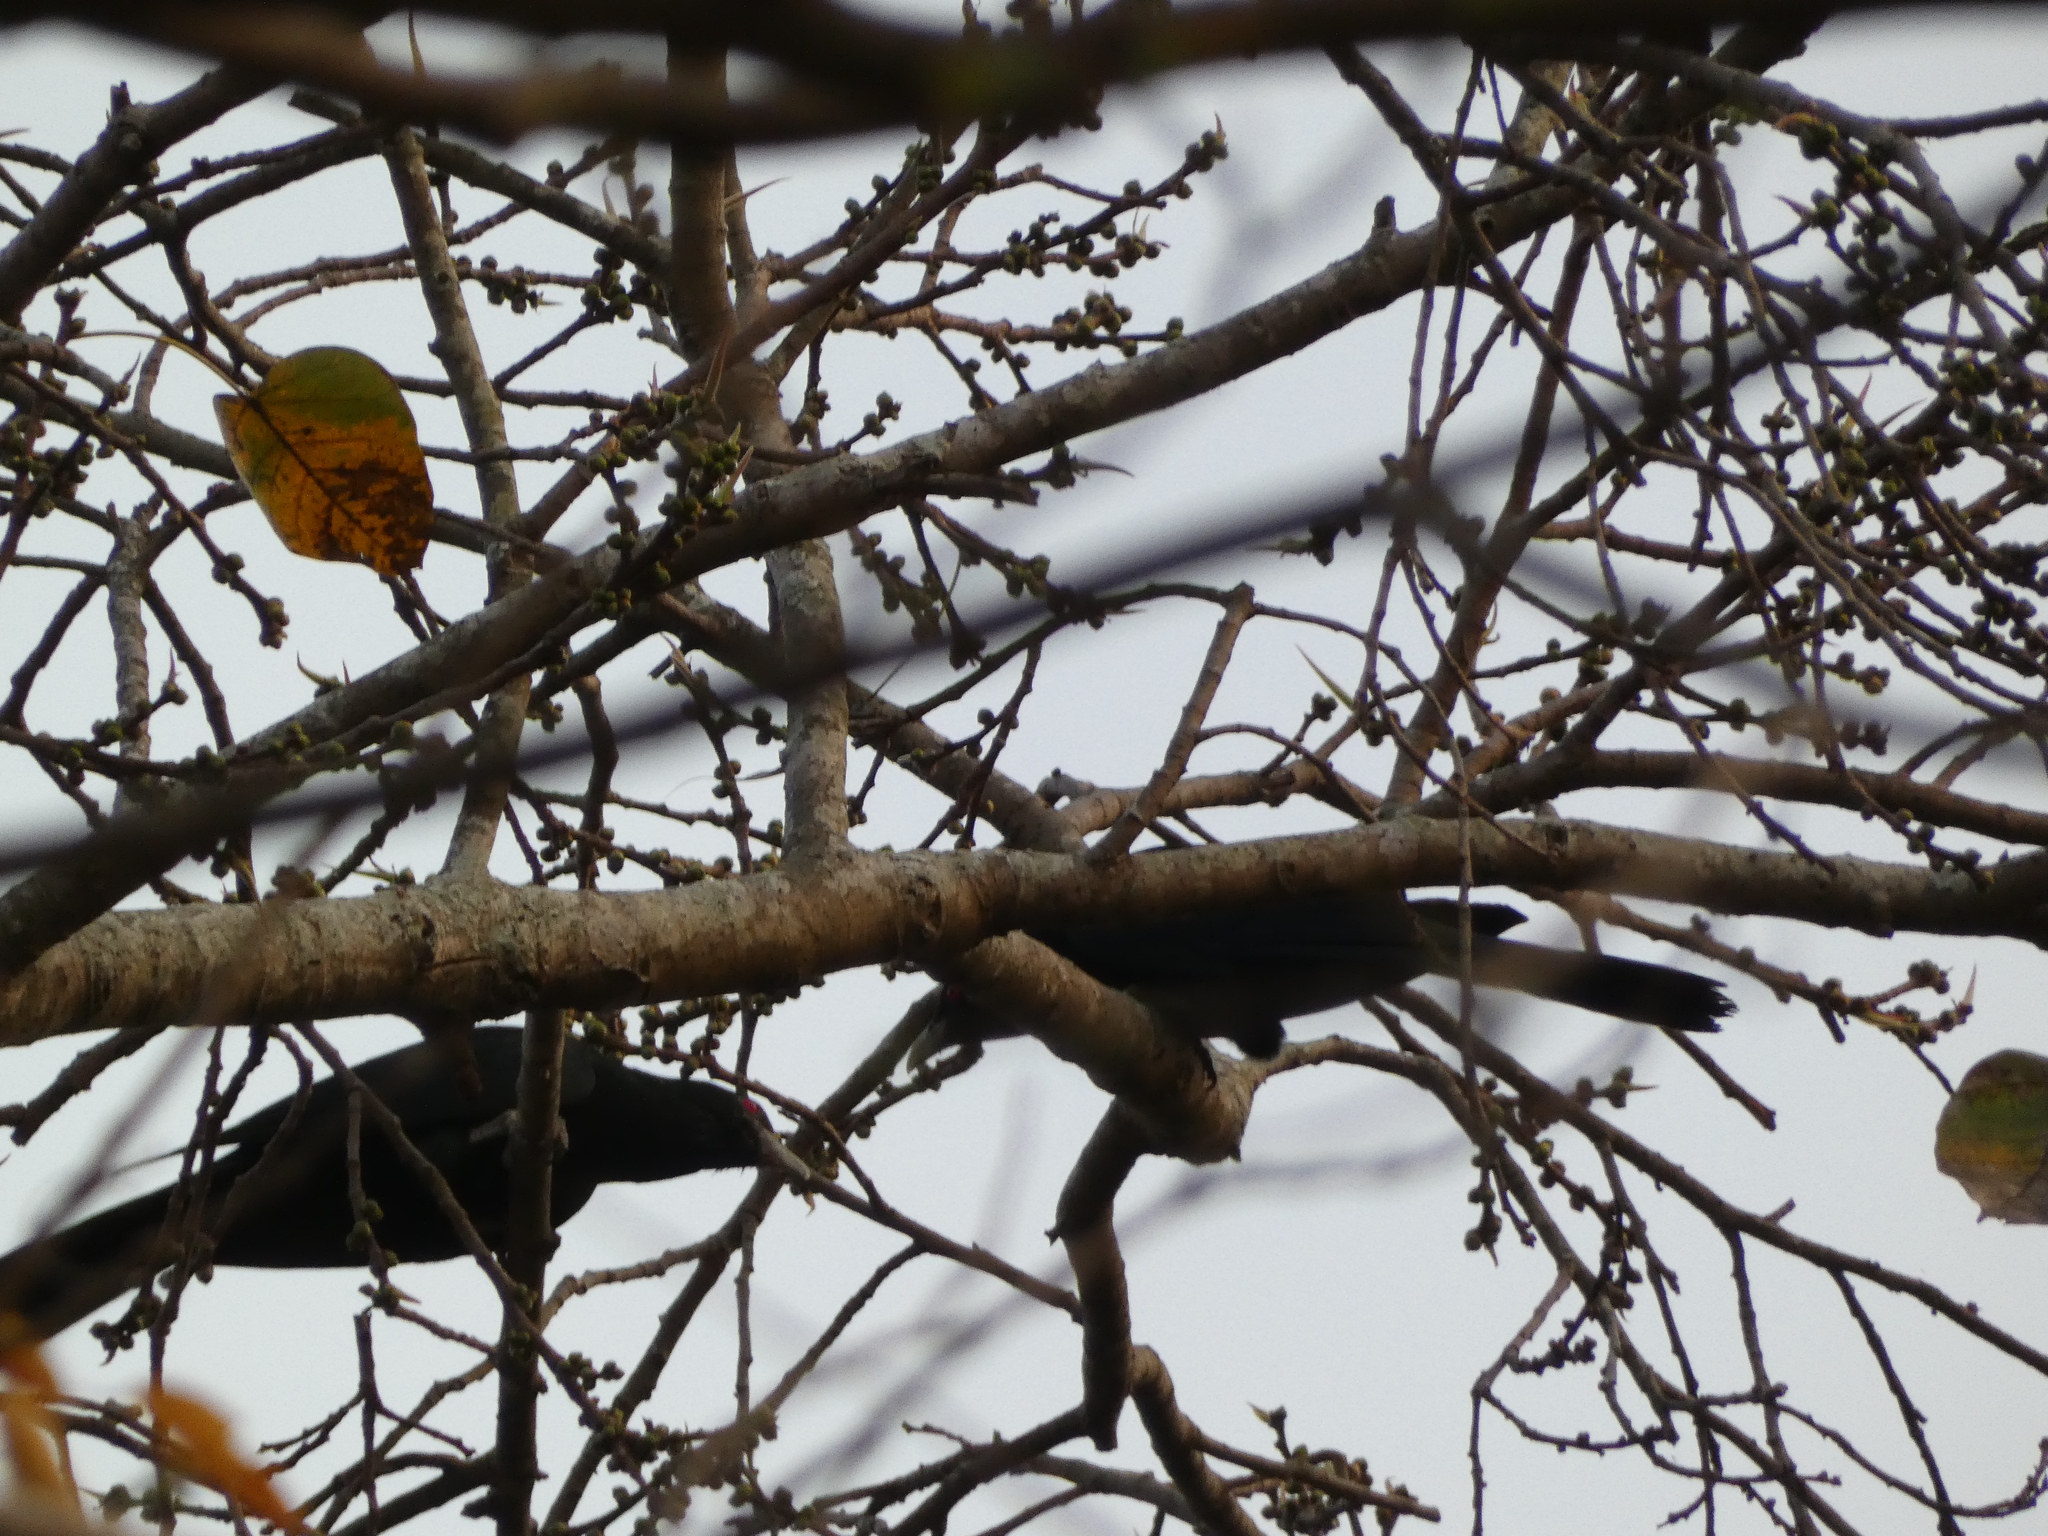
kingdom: Animalia
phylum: Chordata
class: Aves
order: Cuculiformes
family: Cuculidae
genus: Eudynamys
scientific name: Eudynamys scolopaceus
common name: Asian koel
